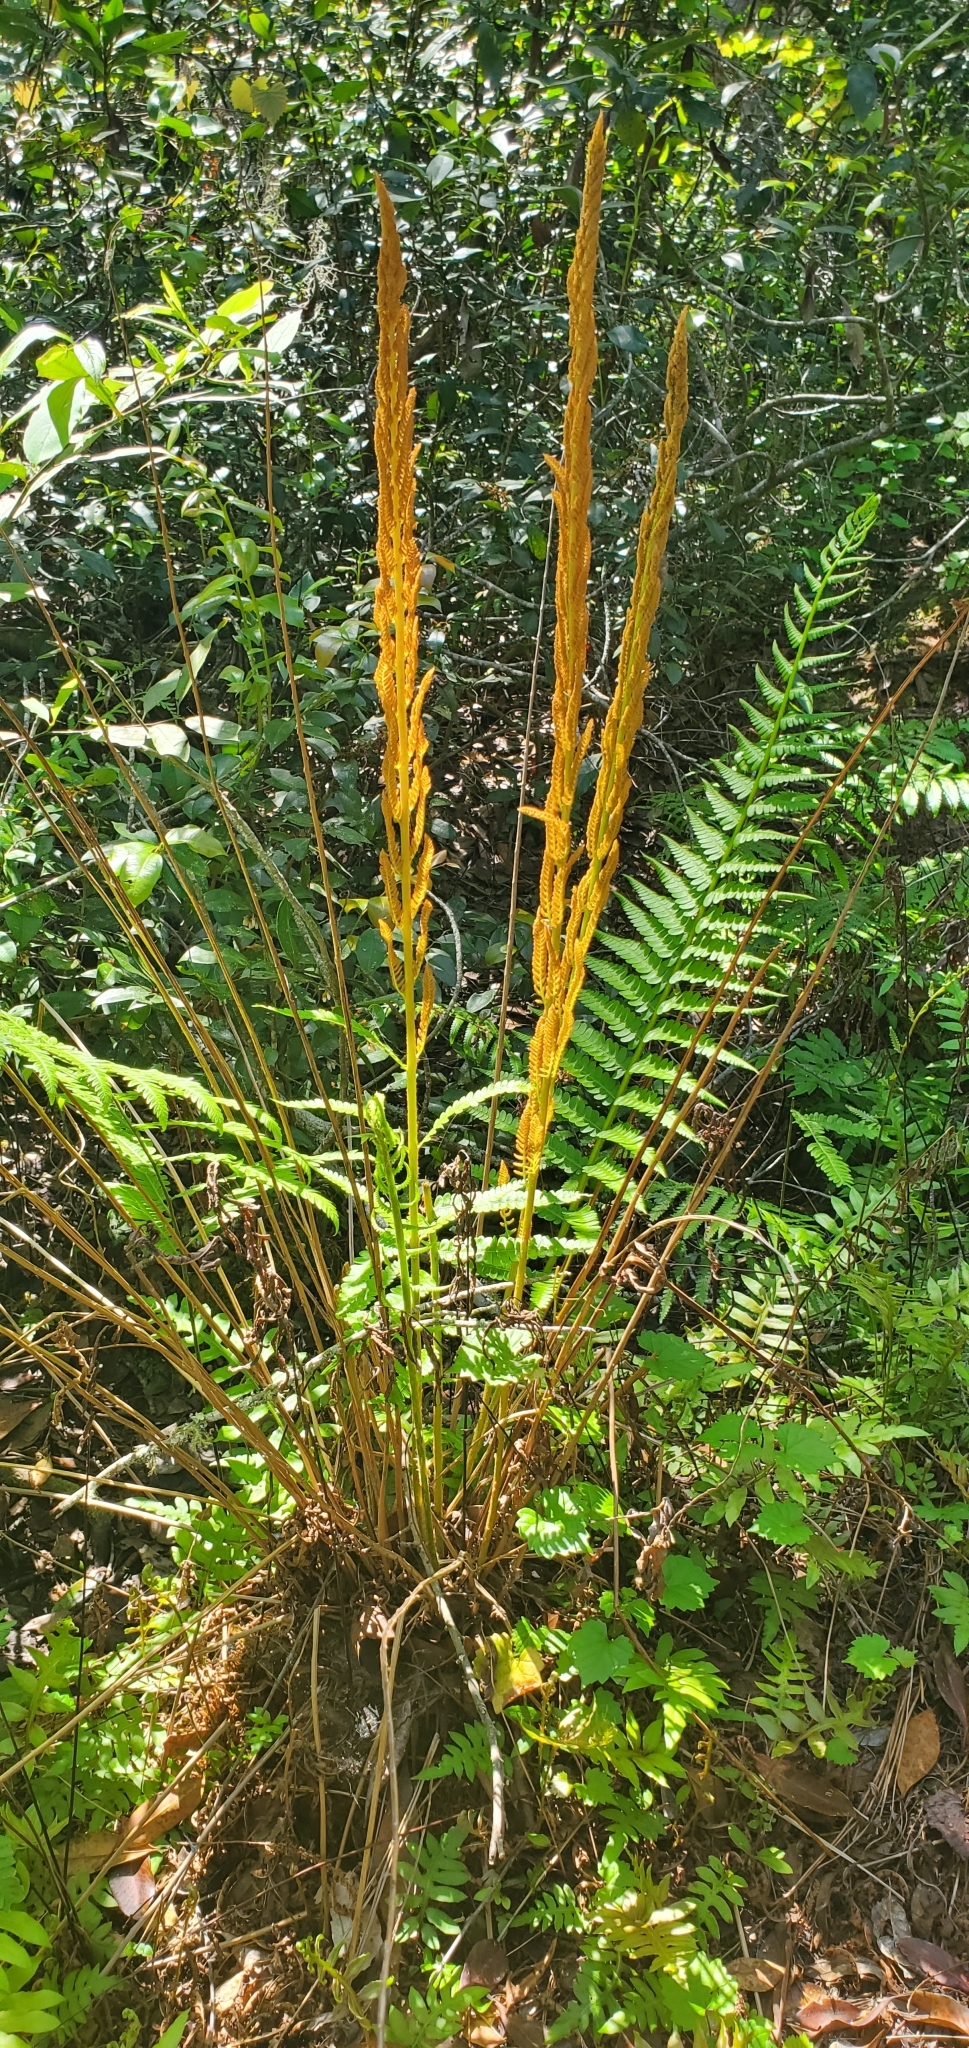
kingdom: Plantae
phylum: Tracheophyta
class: Polypodiopsida
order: Osmundales
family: Osmundaceae
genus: Osmundastrum
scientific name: Osmundastrum cinnamomeum
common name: Cinnamon fern
